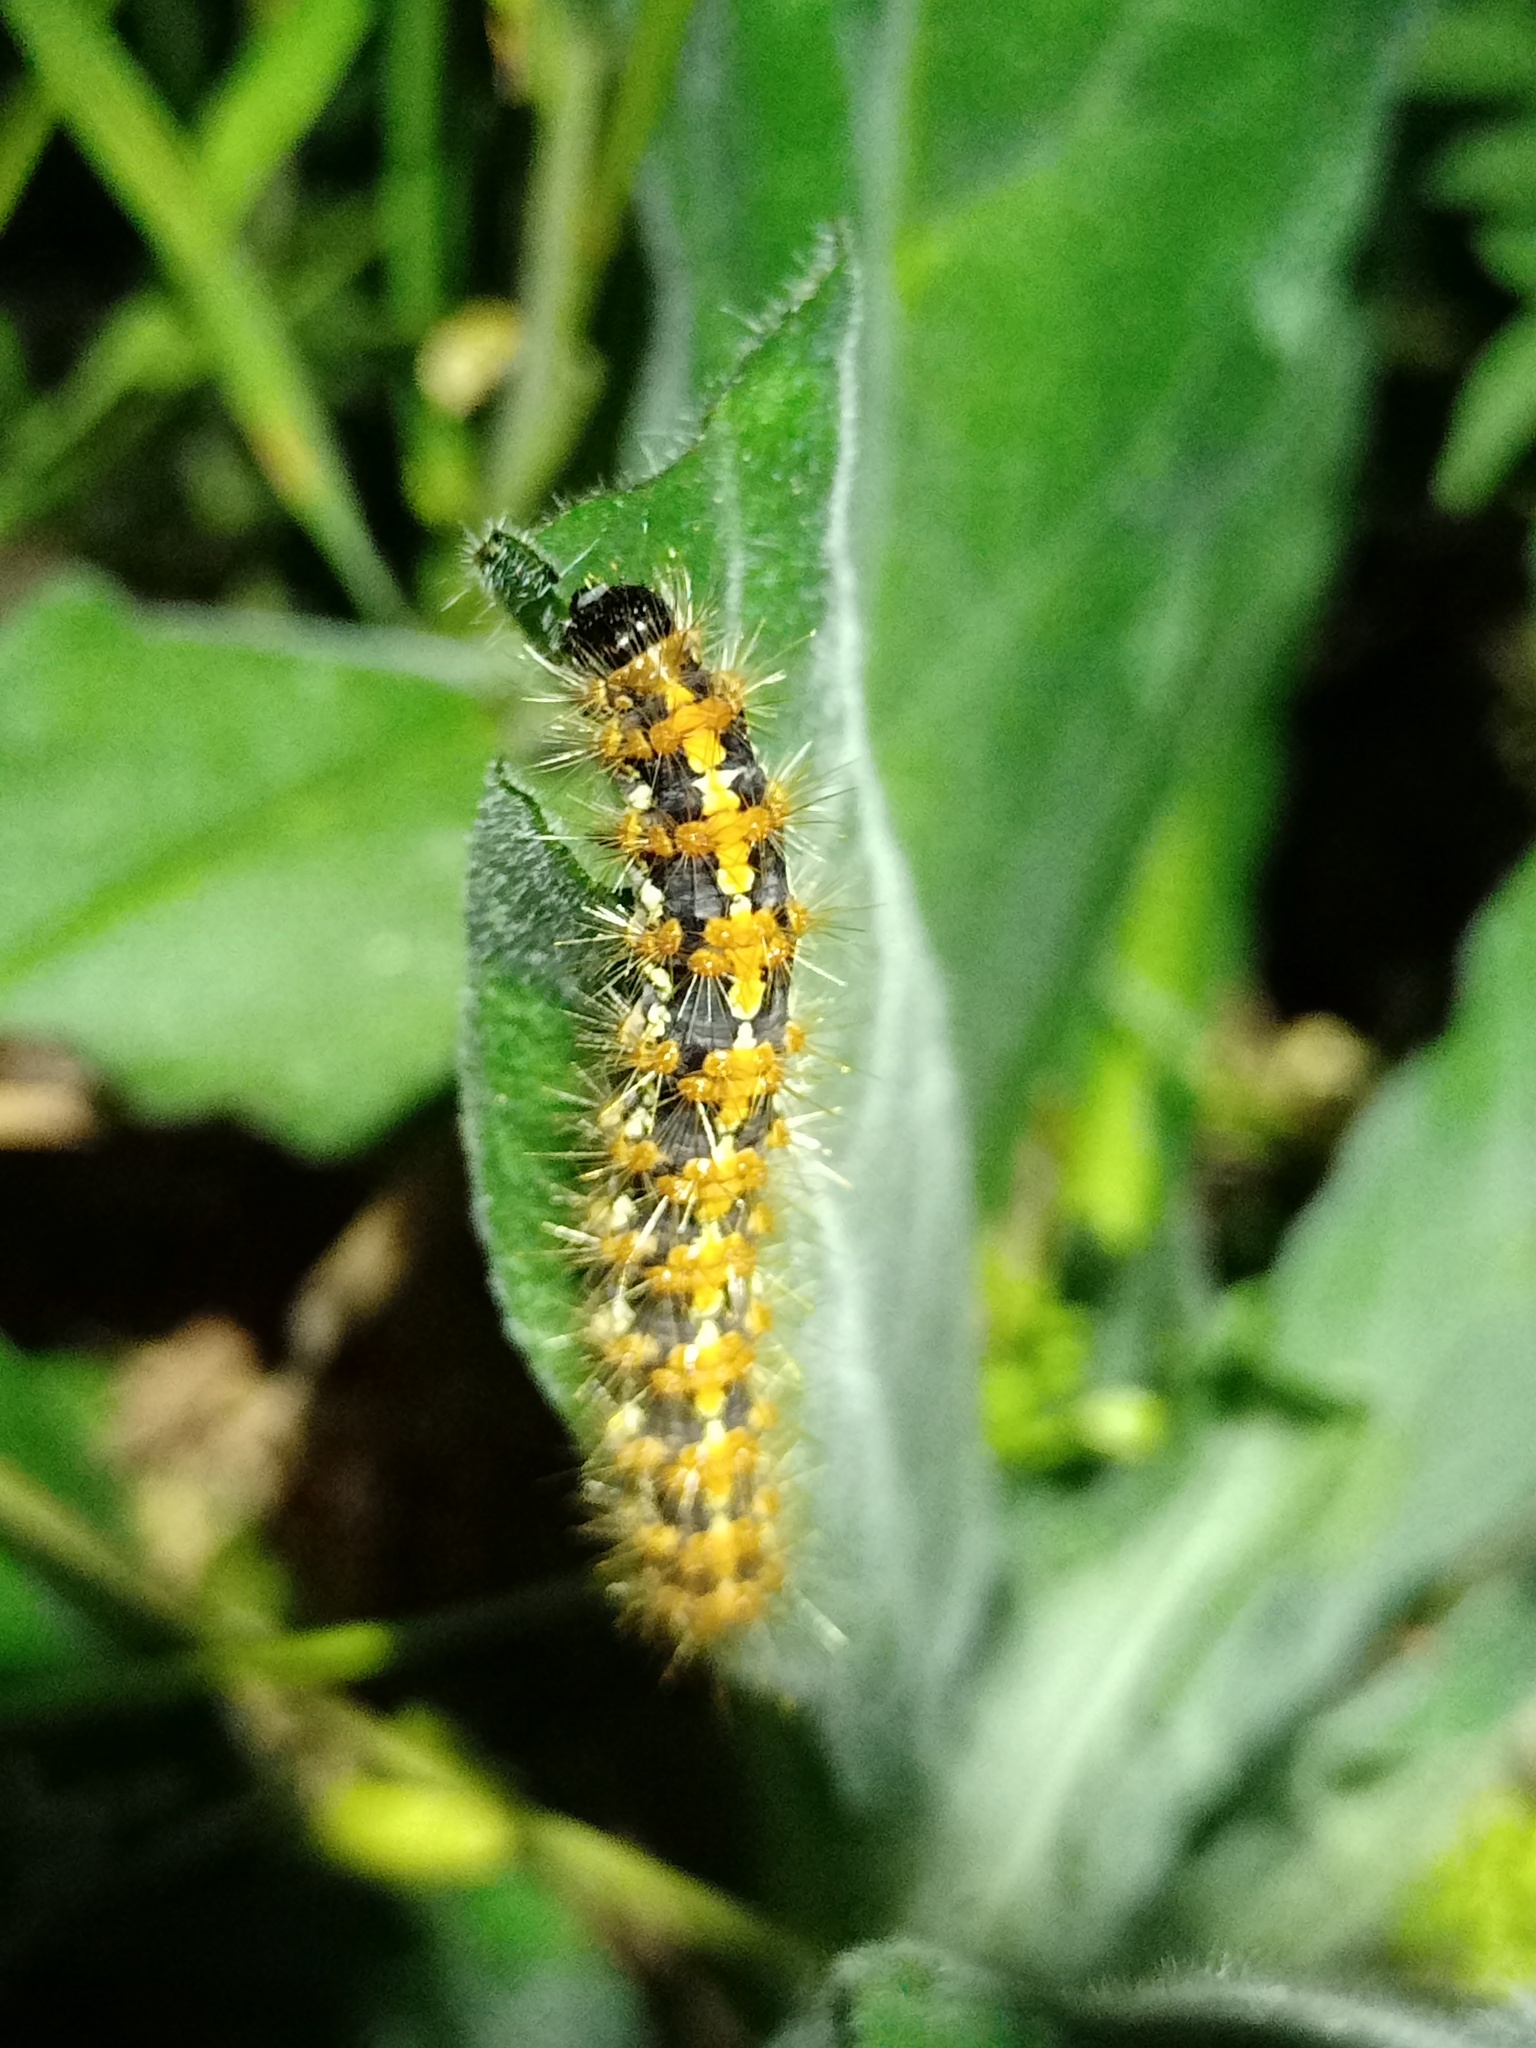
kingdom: Animalia
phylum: Arthropoda
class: Insecta
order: Lepidoptera
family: Erebidae
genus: Euplagia
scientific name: Euplagia quadripunctaria
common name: Jersey tiger
